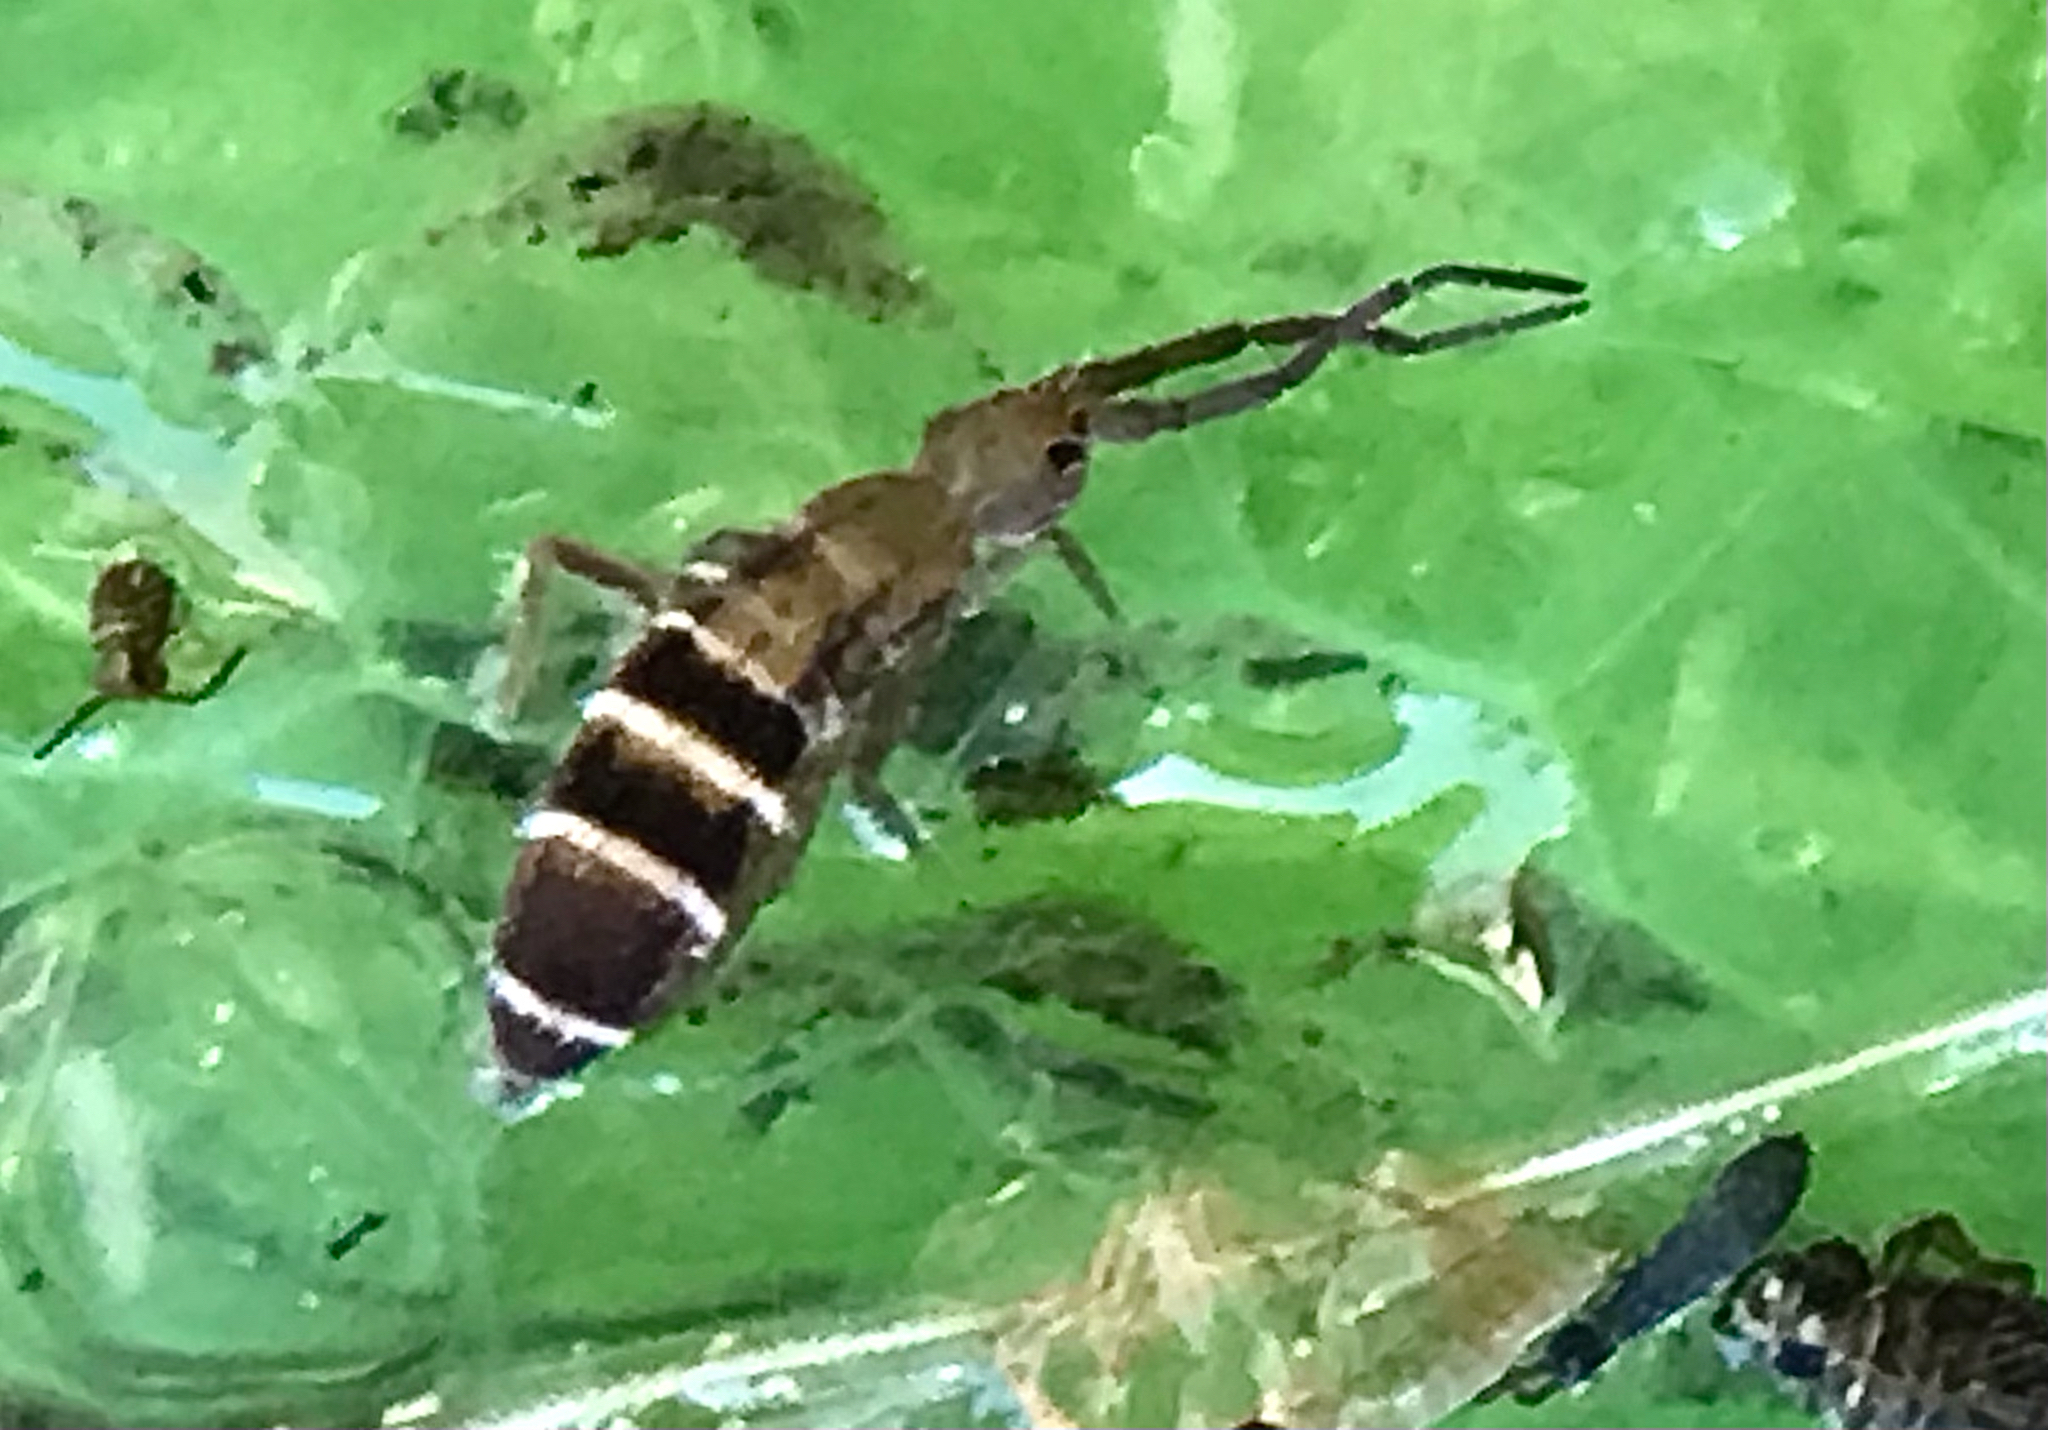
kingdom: Animalia
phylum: Arthropoda
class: Collembola
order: Entomobryomorpha
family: Orchesellidae
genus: Orchesella
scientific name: Orchesella hexfasciata
